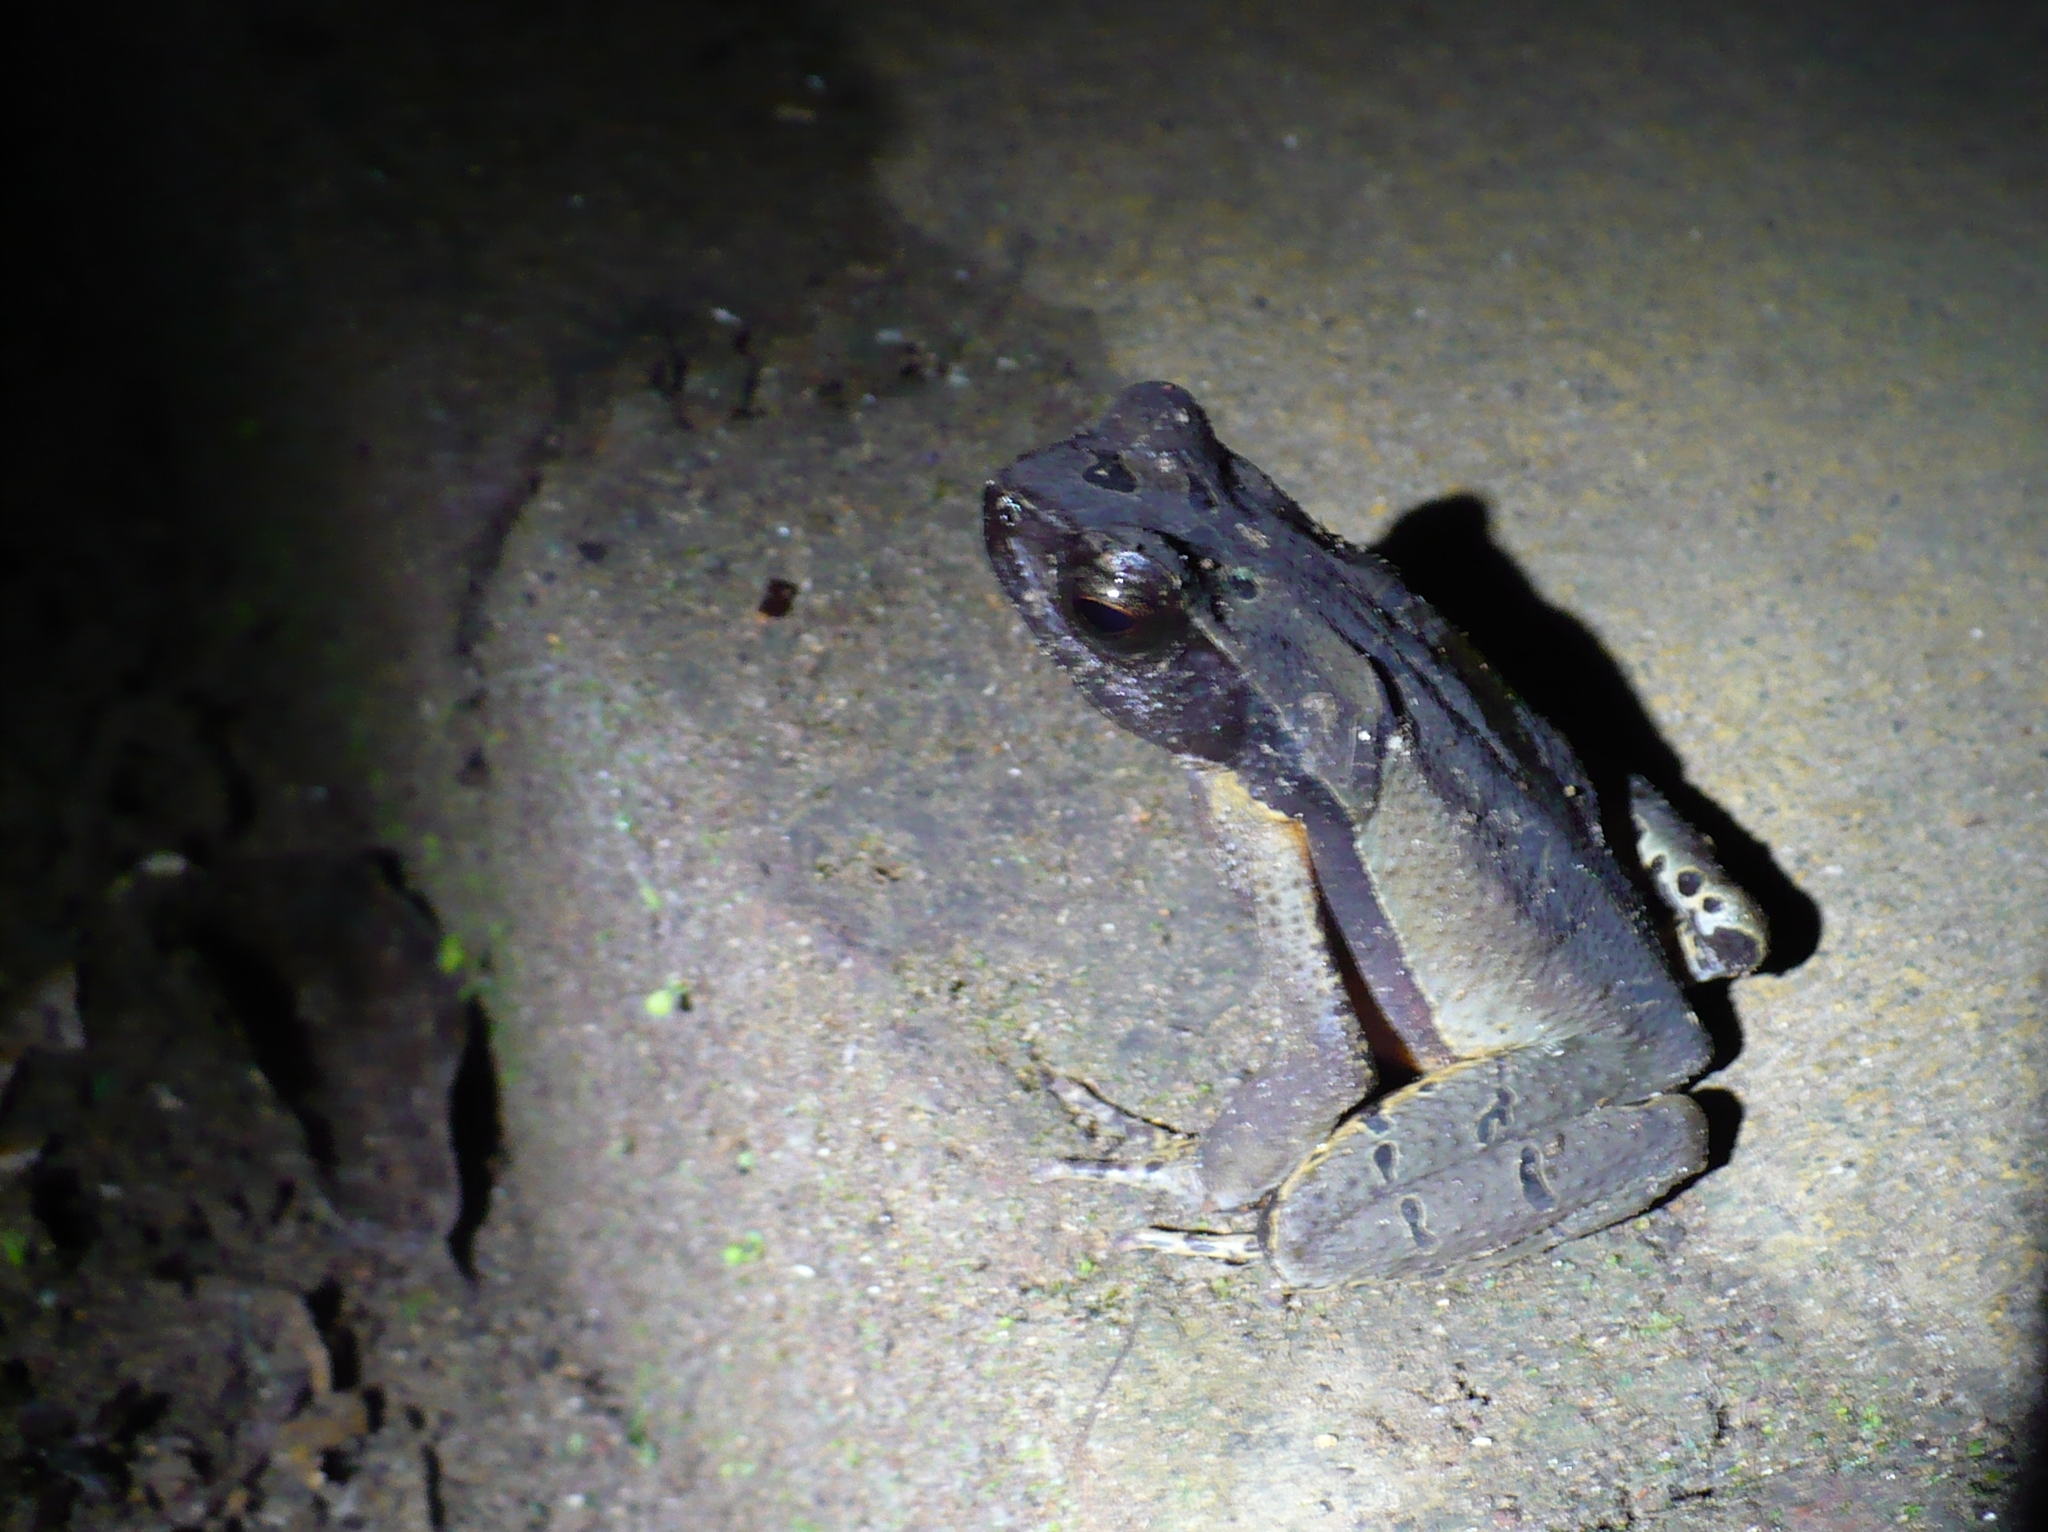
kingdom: Animalia
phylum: Chordata
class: Amphibia
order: Anura
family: Bufonidae
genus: Rhaebo
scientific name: Rhaebo haematiticus
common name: Truando toad
